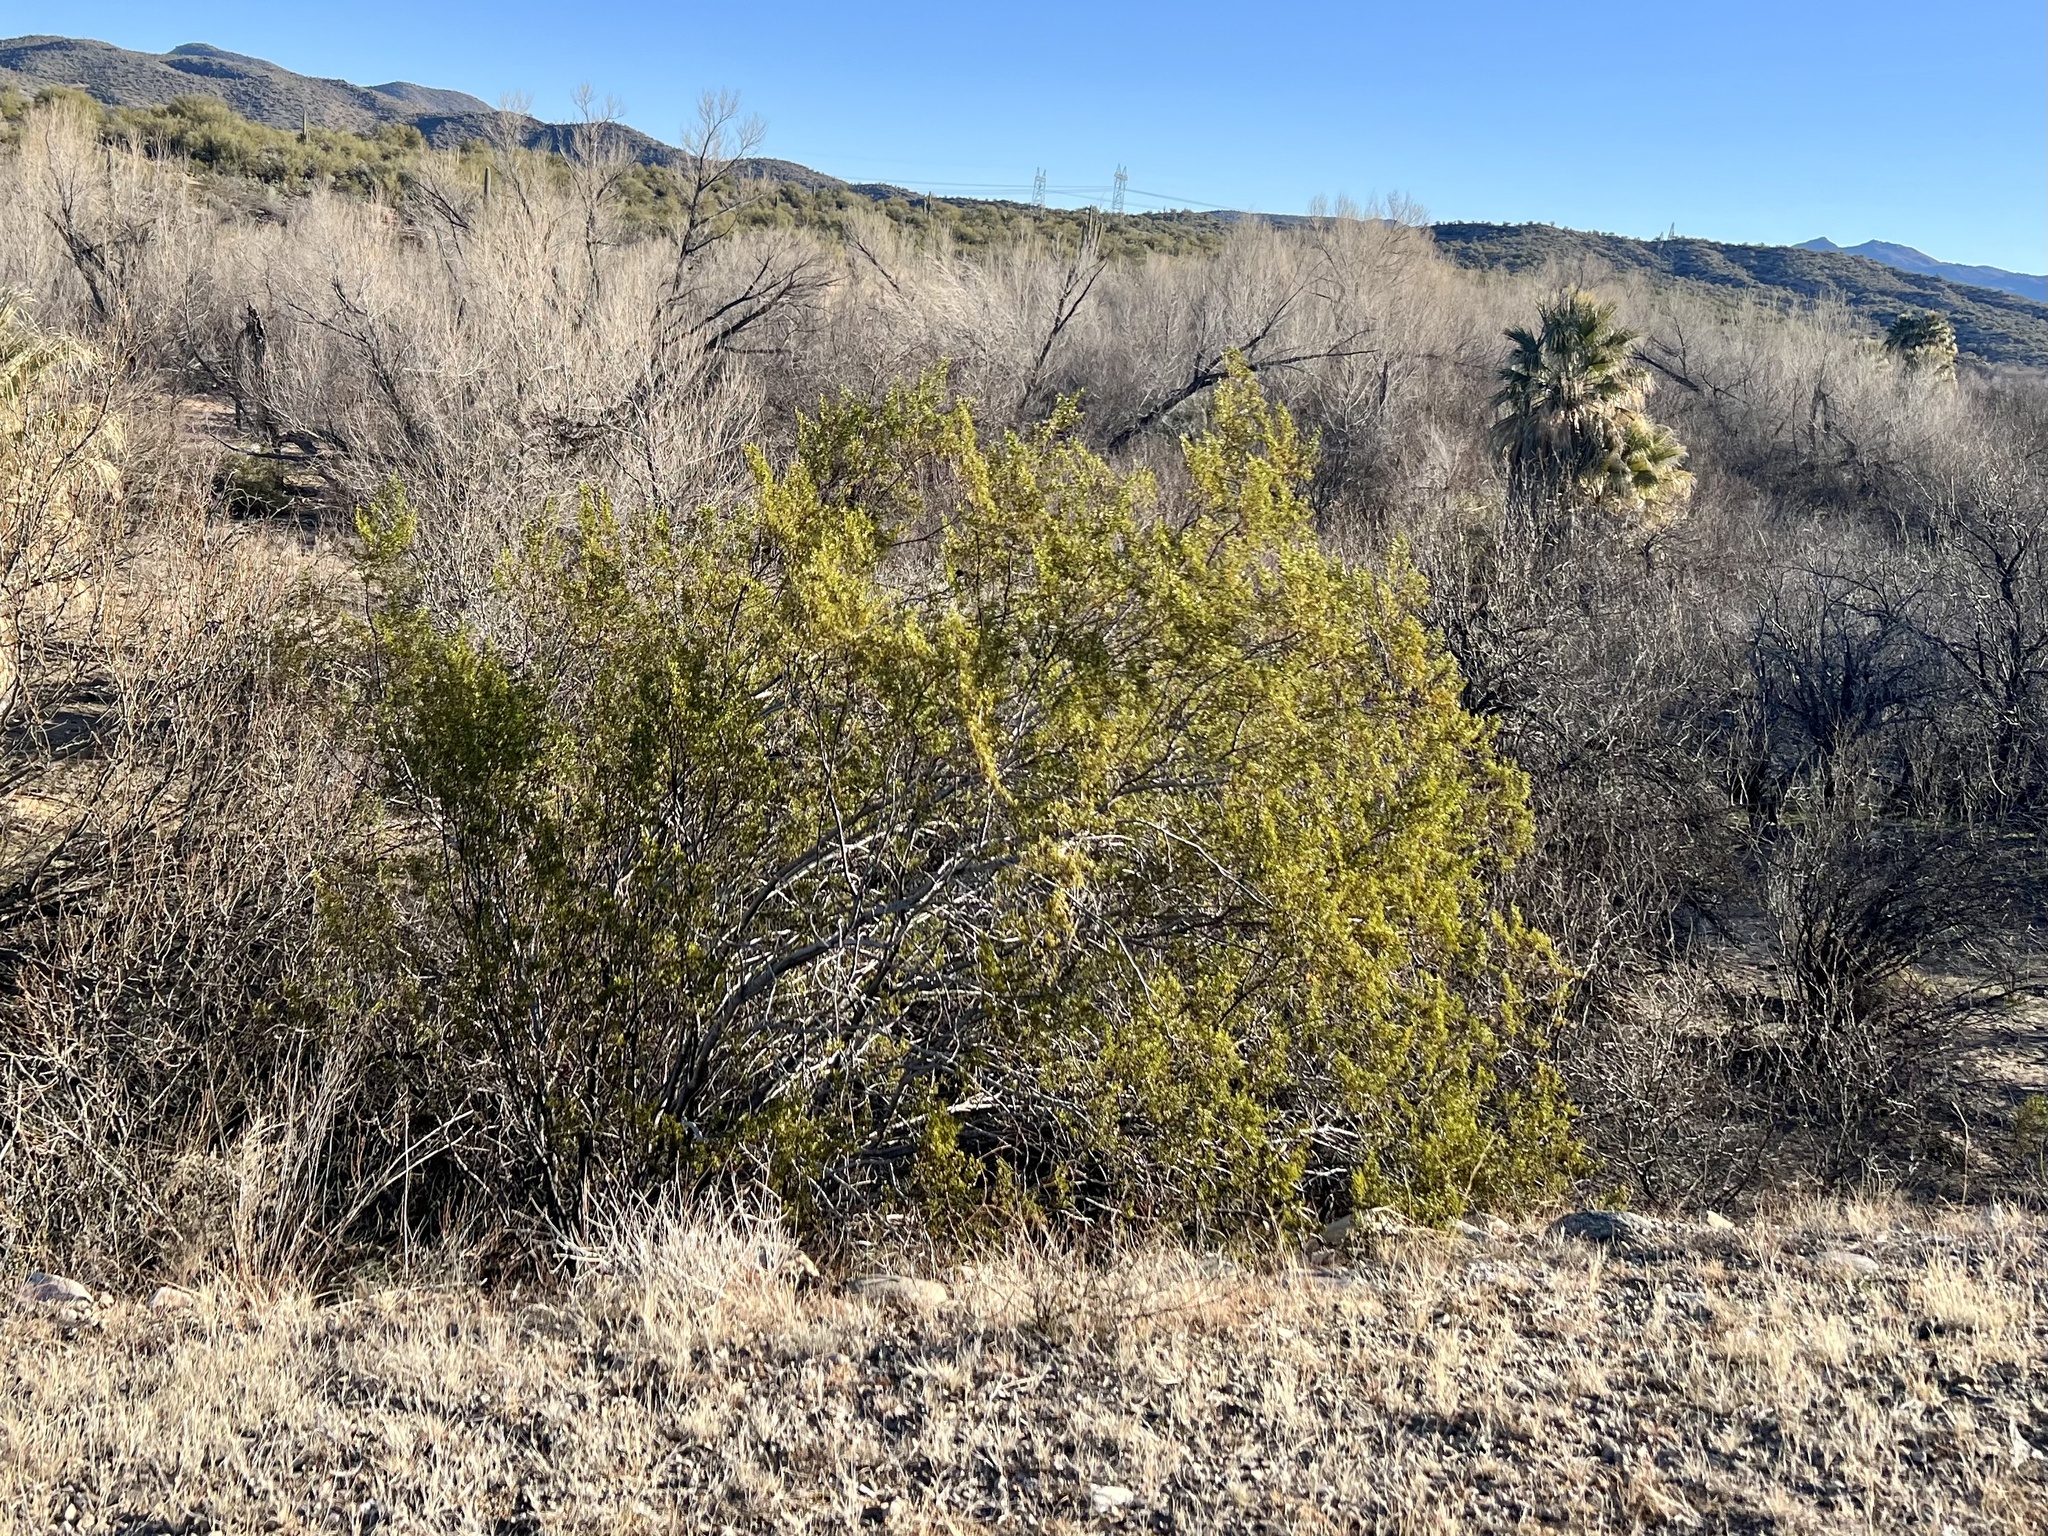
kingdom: Plantae
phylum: Tracheophyta
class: Magnoliopsida
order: Zygophyllales
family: Zygophyllaceae
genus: Larrea
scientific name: Larrea tridentata
